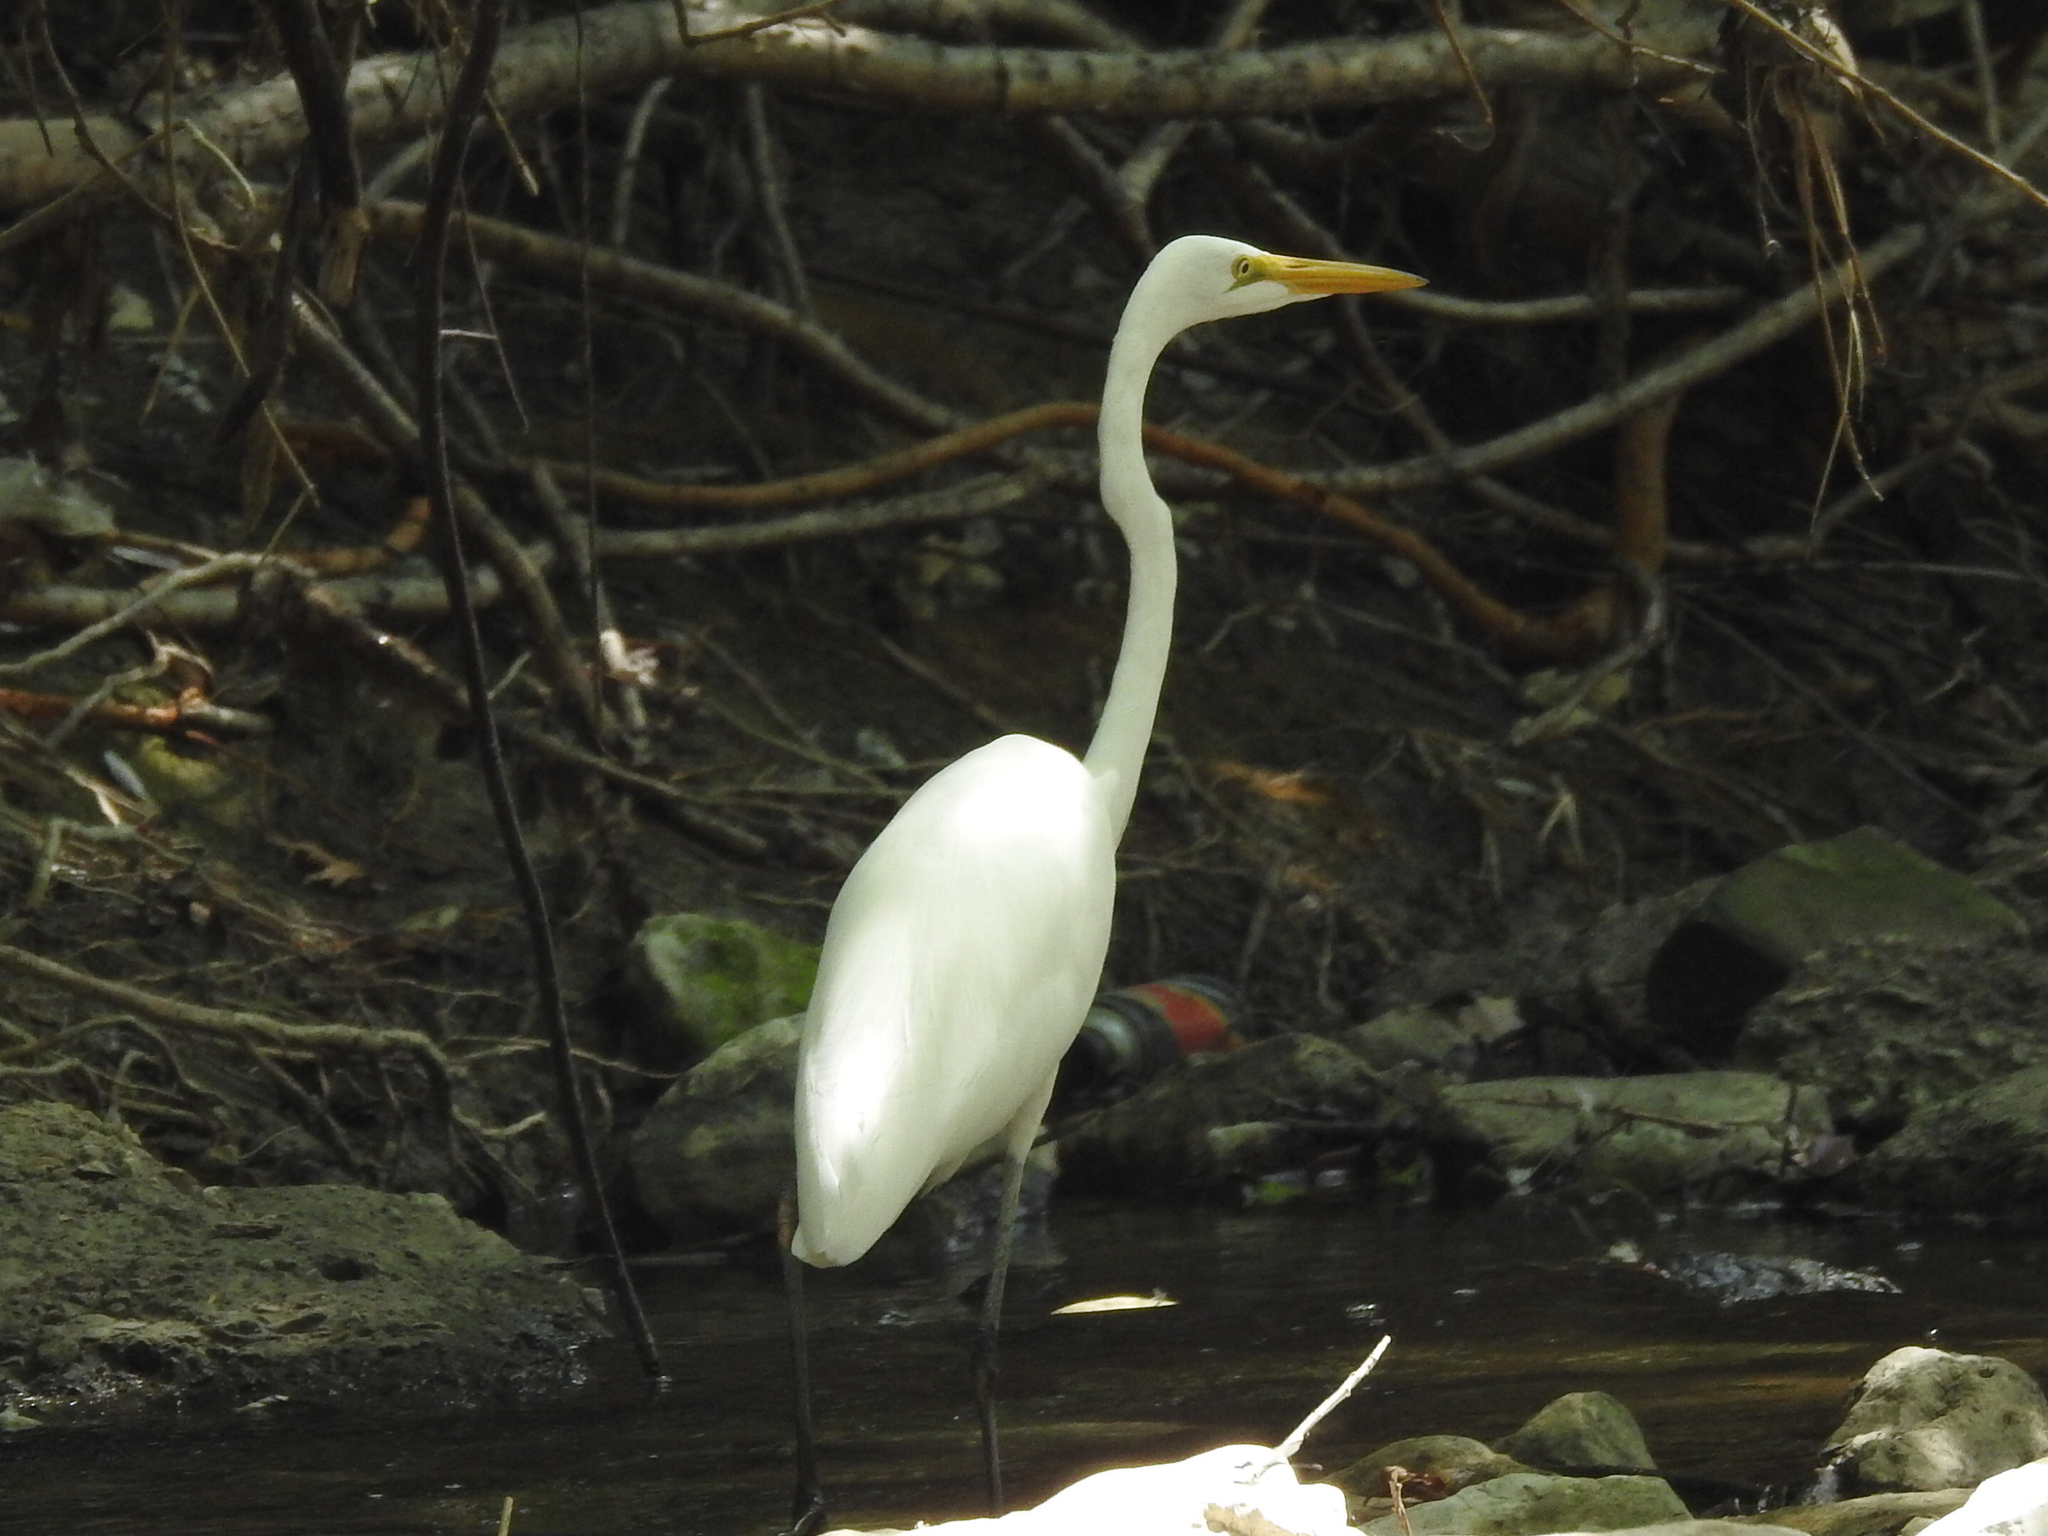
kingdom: Animalia
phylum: Chordata
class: Aves
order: Pelecaniformes
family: Ardeidae
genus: Ardea
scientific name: Ardea alba
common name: Great egret
